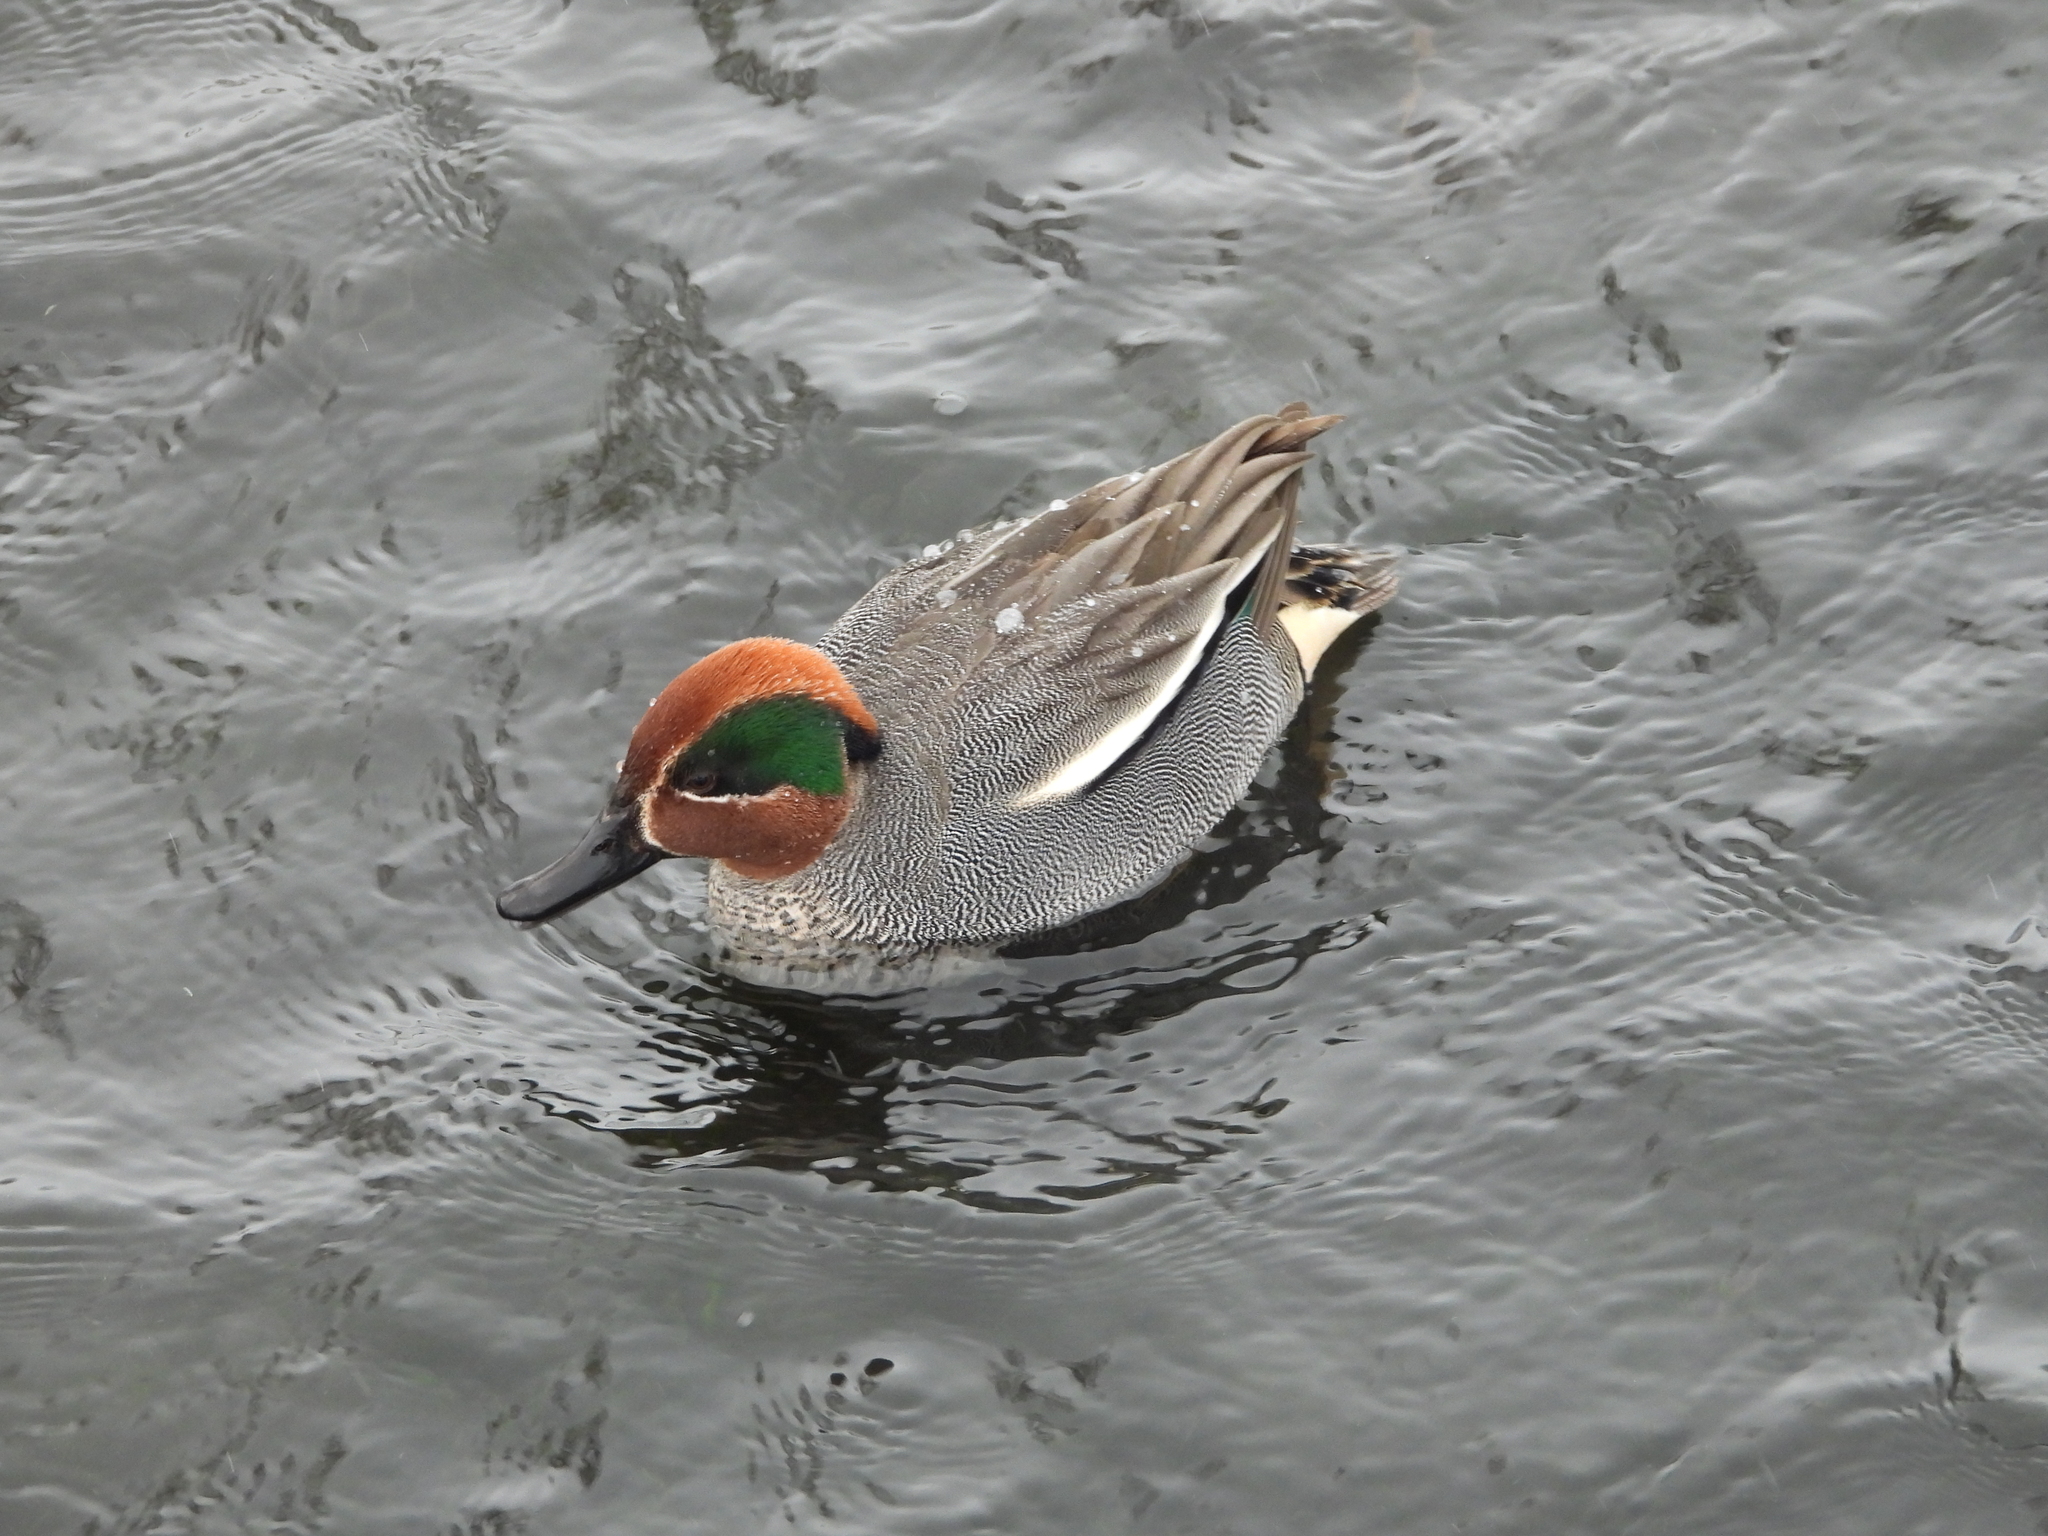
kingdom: Animalia
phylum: Chordata
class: Aves
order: Anseriformes
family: Anatidae
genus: Anas
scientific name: Anas crecca
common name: Eurasian teal
